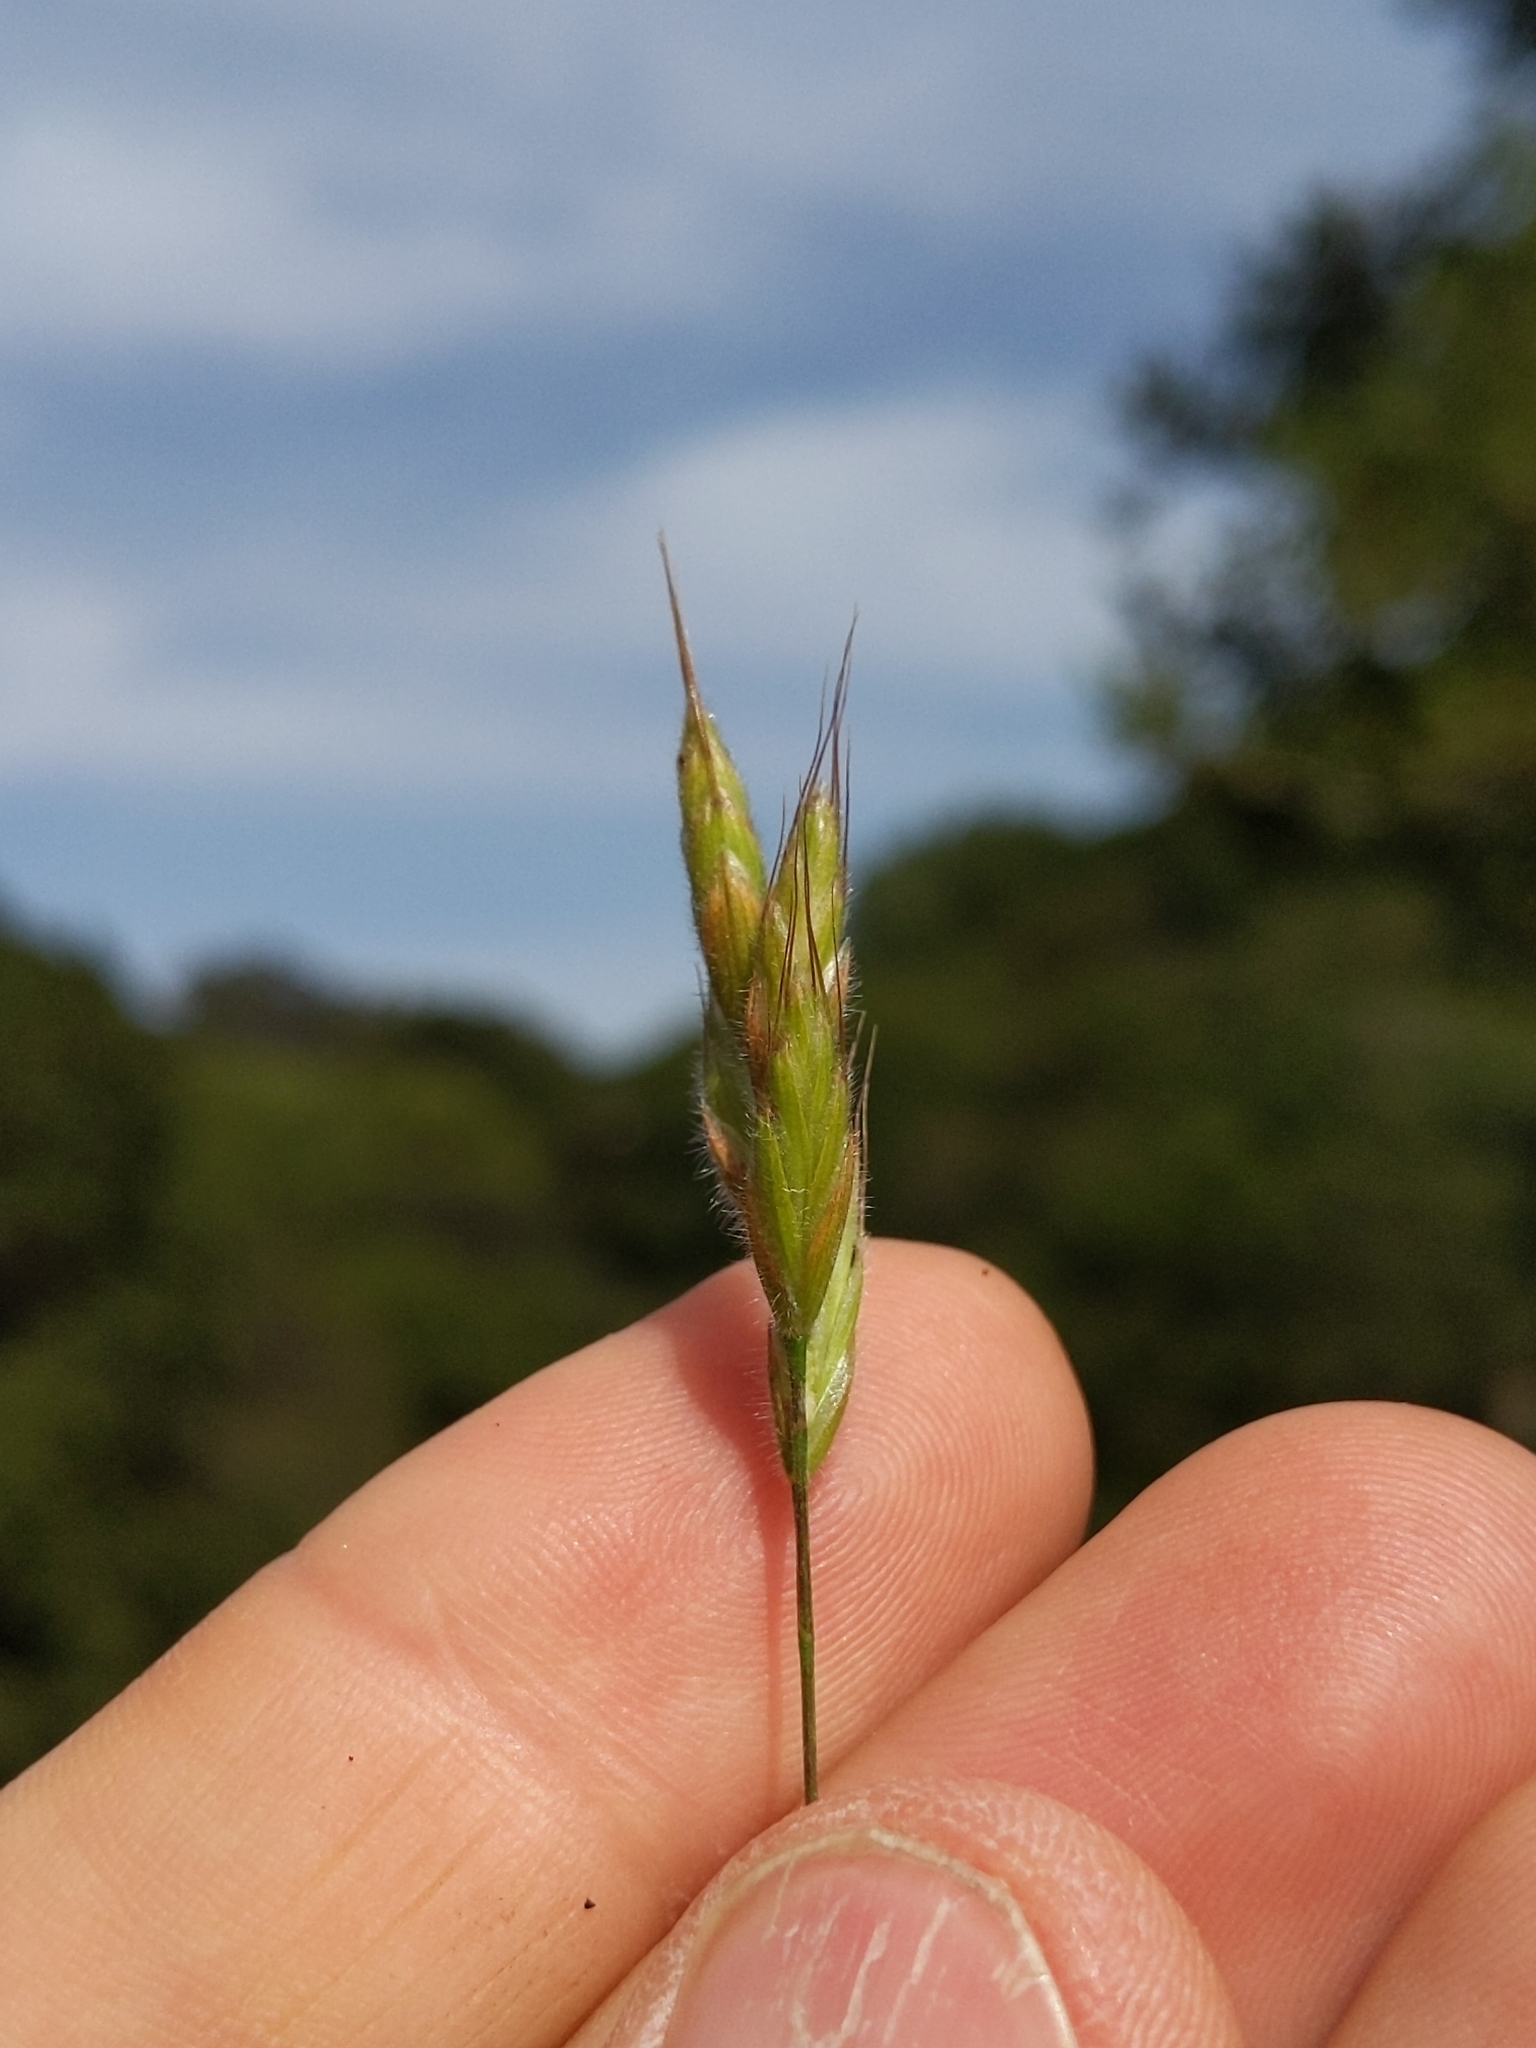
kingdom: Plantae
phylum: Tracheophyta
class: Liliopsida
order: Poales
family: Poaceae
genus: Bromus
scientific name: Bromus hordeaceus
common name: Soft brome
